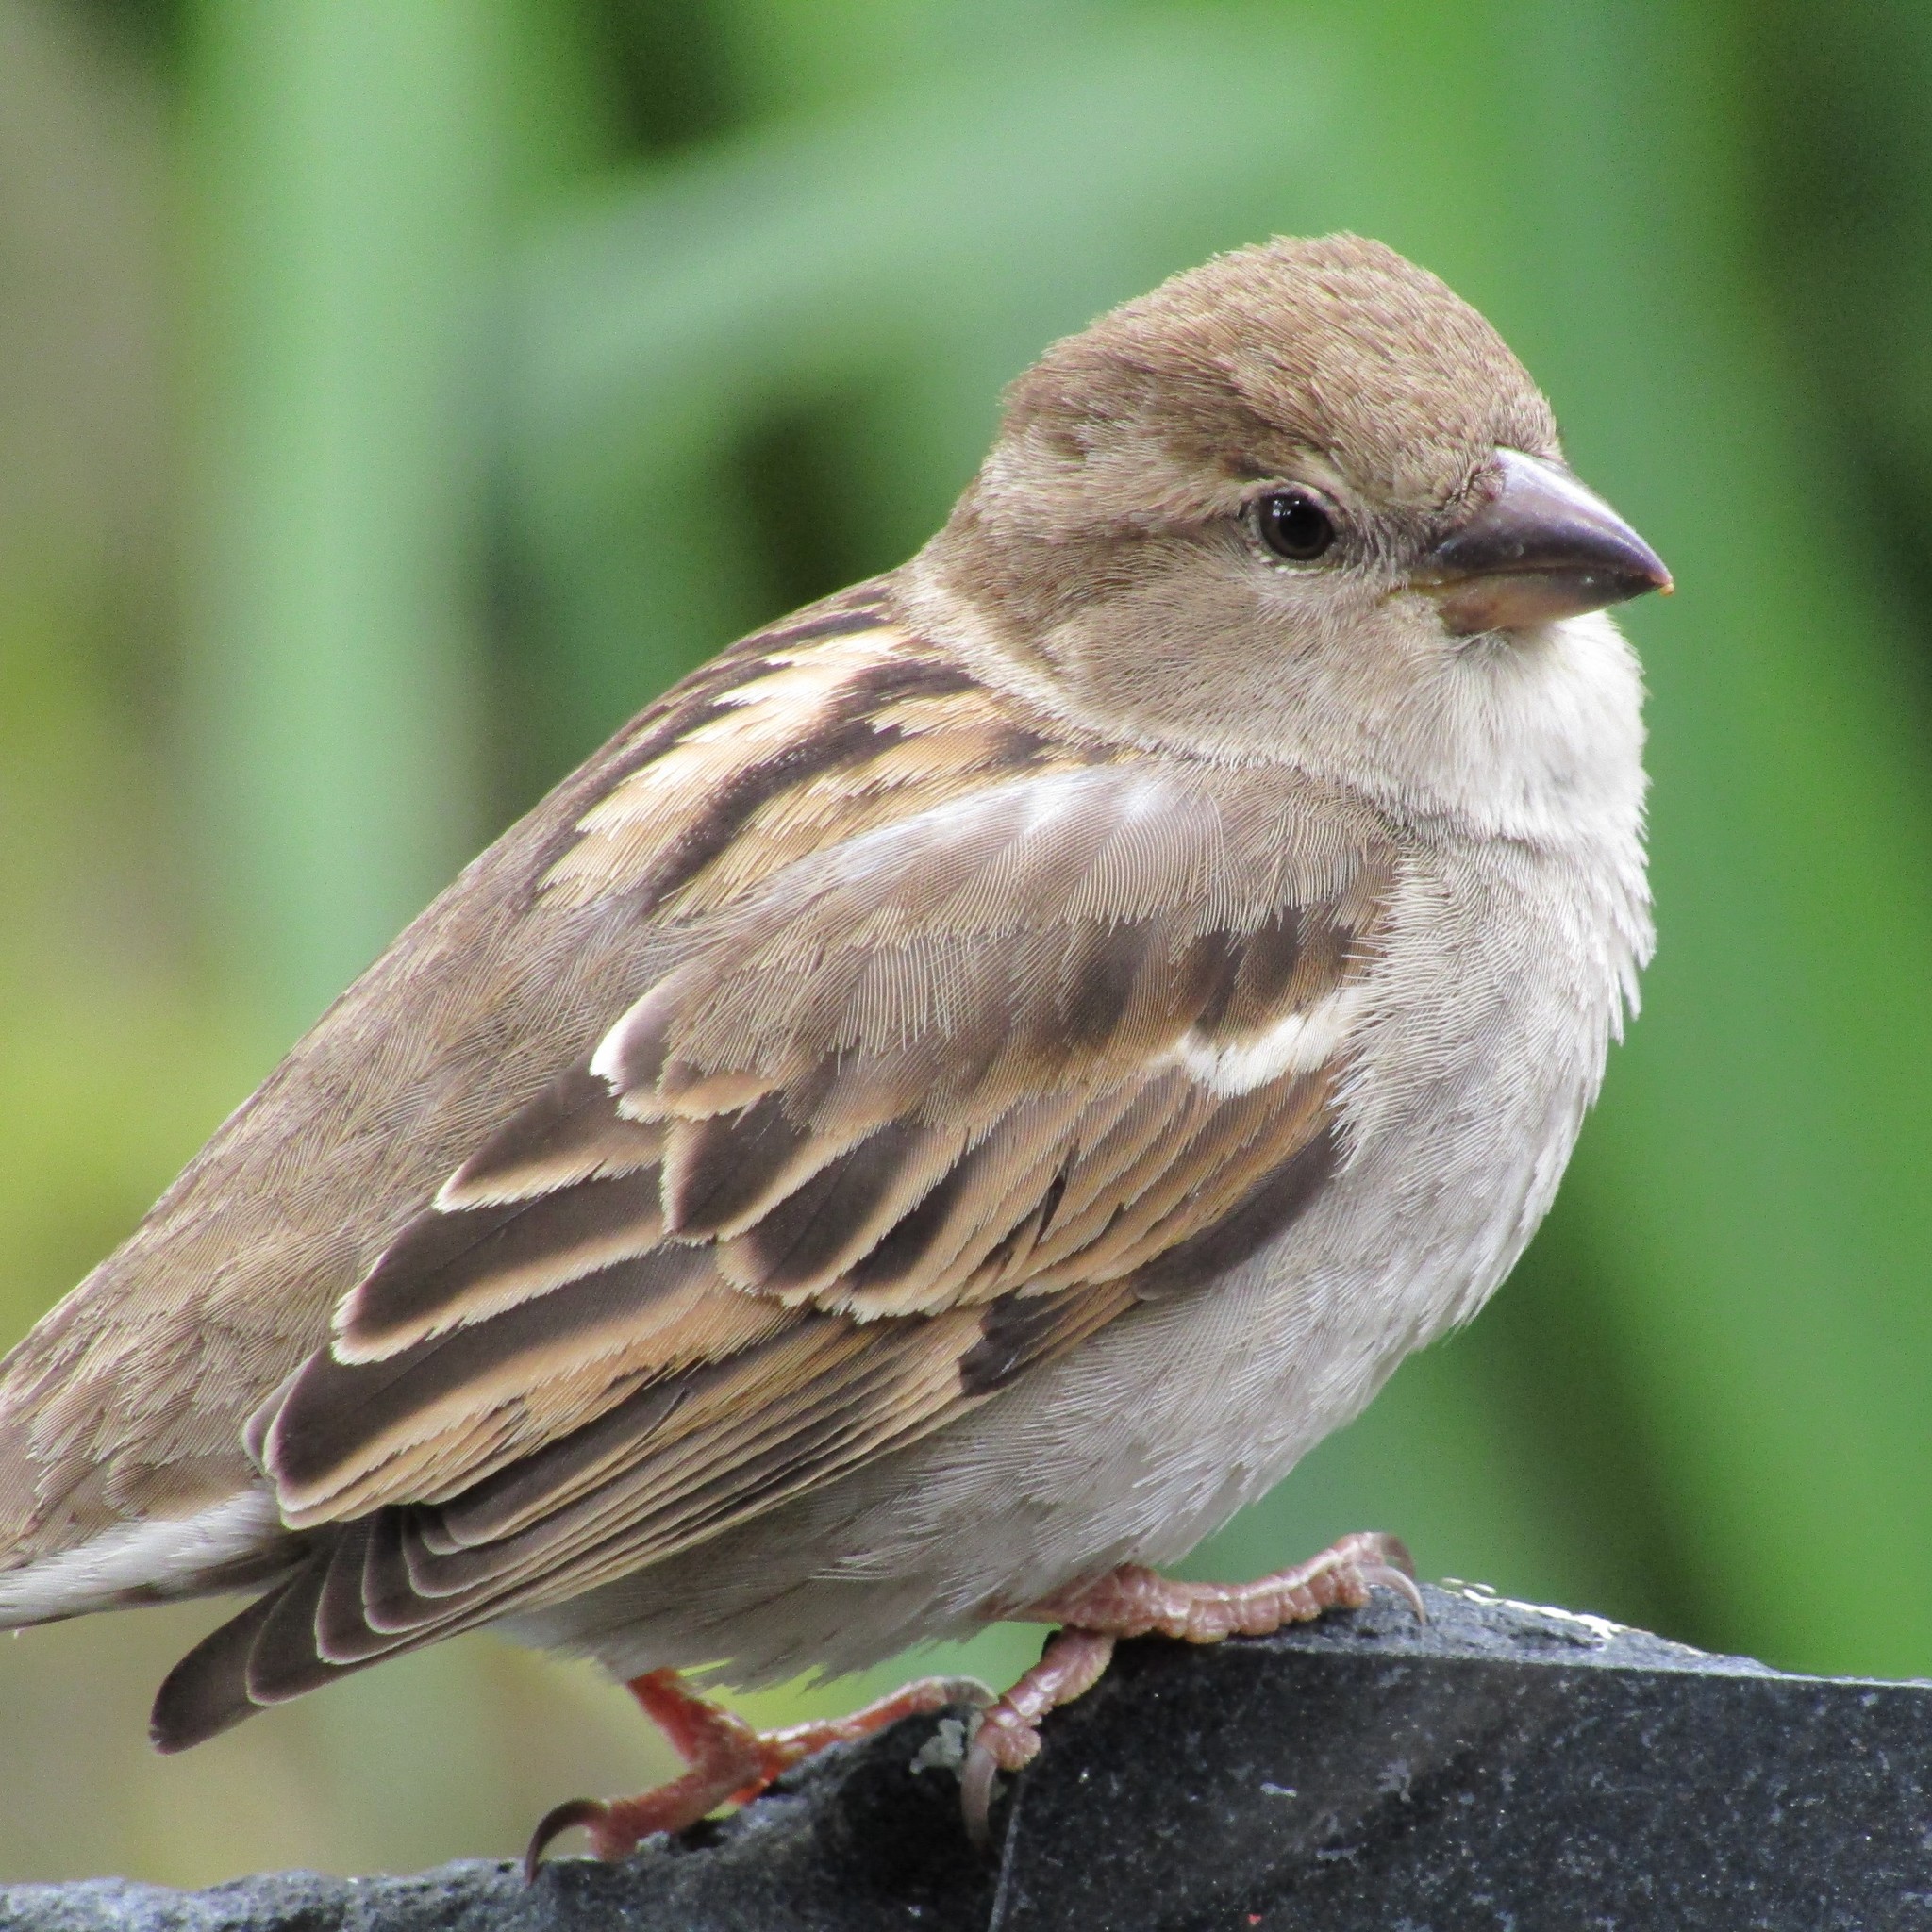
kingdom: Animalia
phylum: Chordata
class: Aves
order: Passeriformes
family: Passeridae
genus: Passer
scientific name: Passer domesticus
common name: House sparrow
